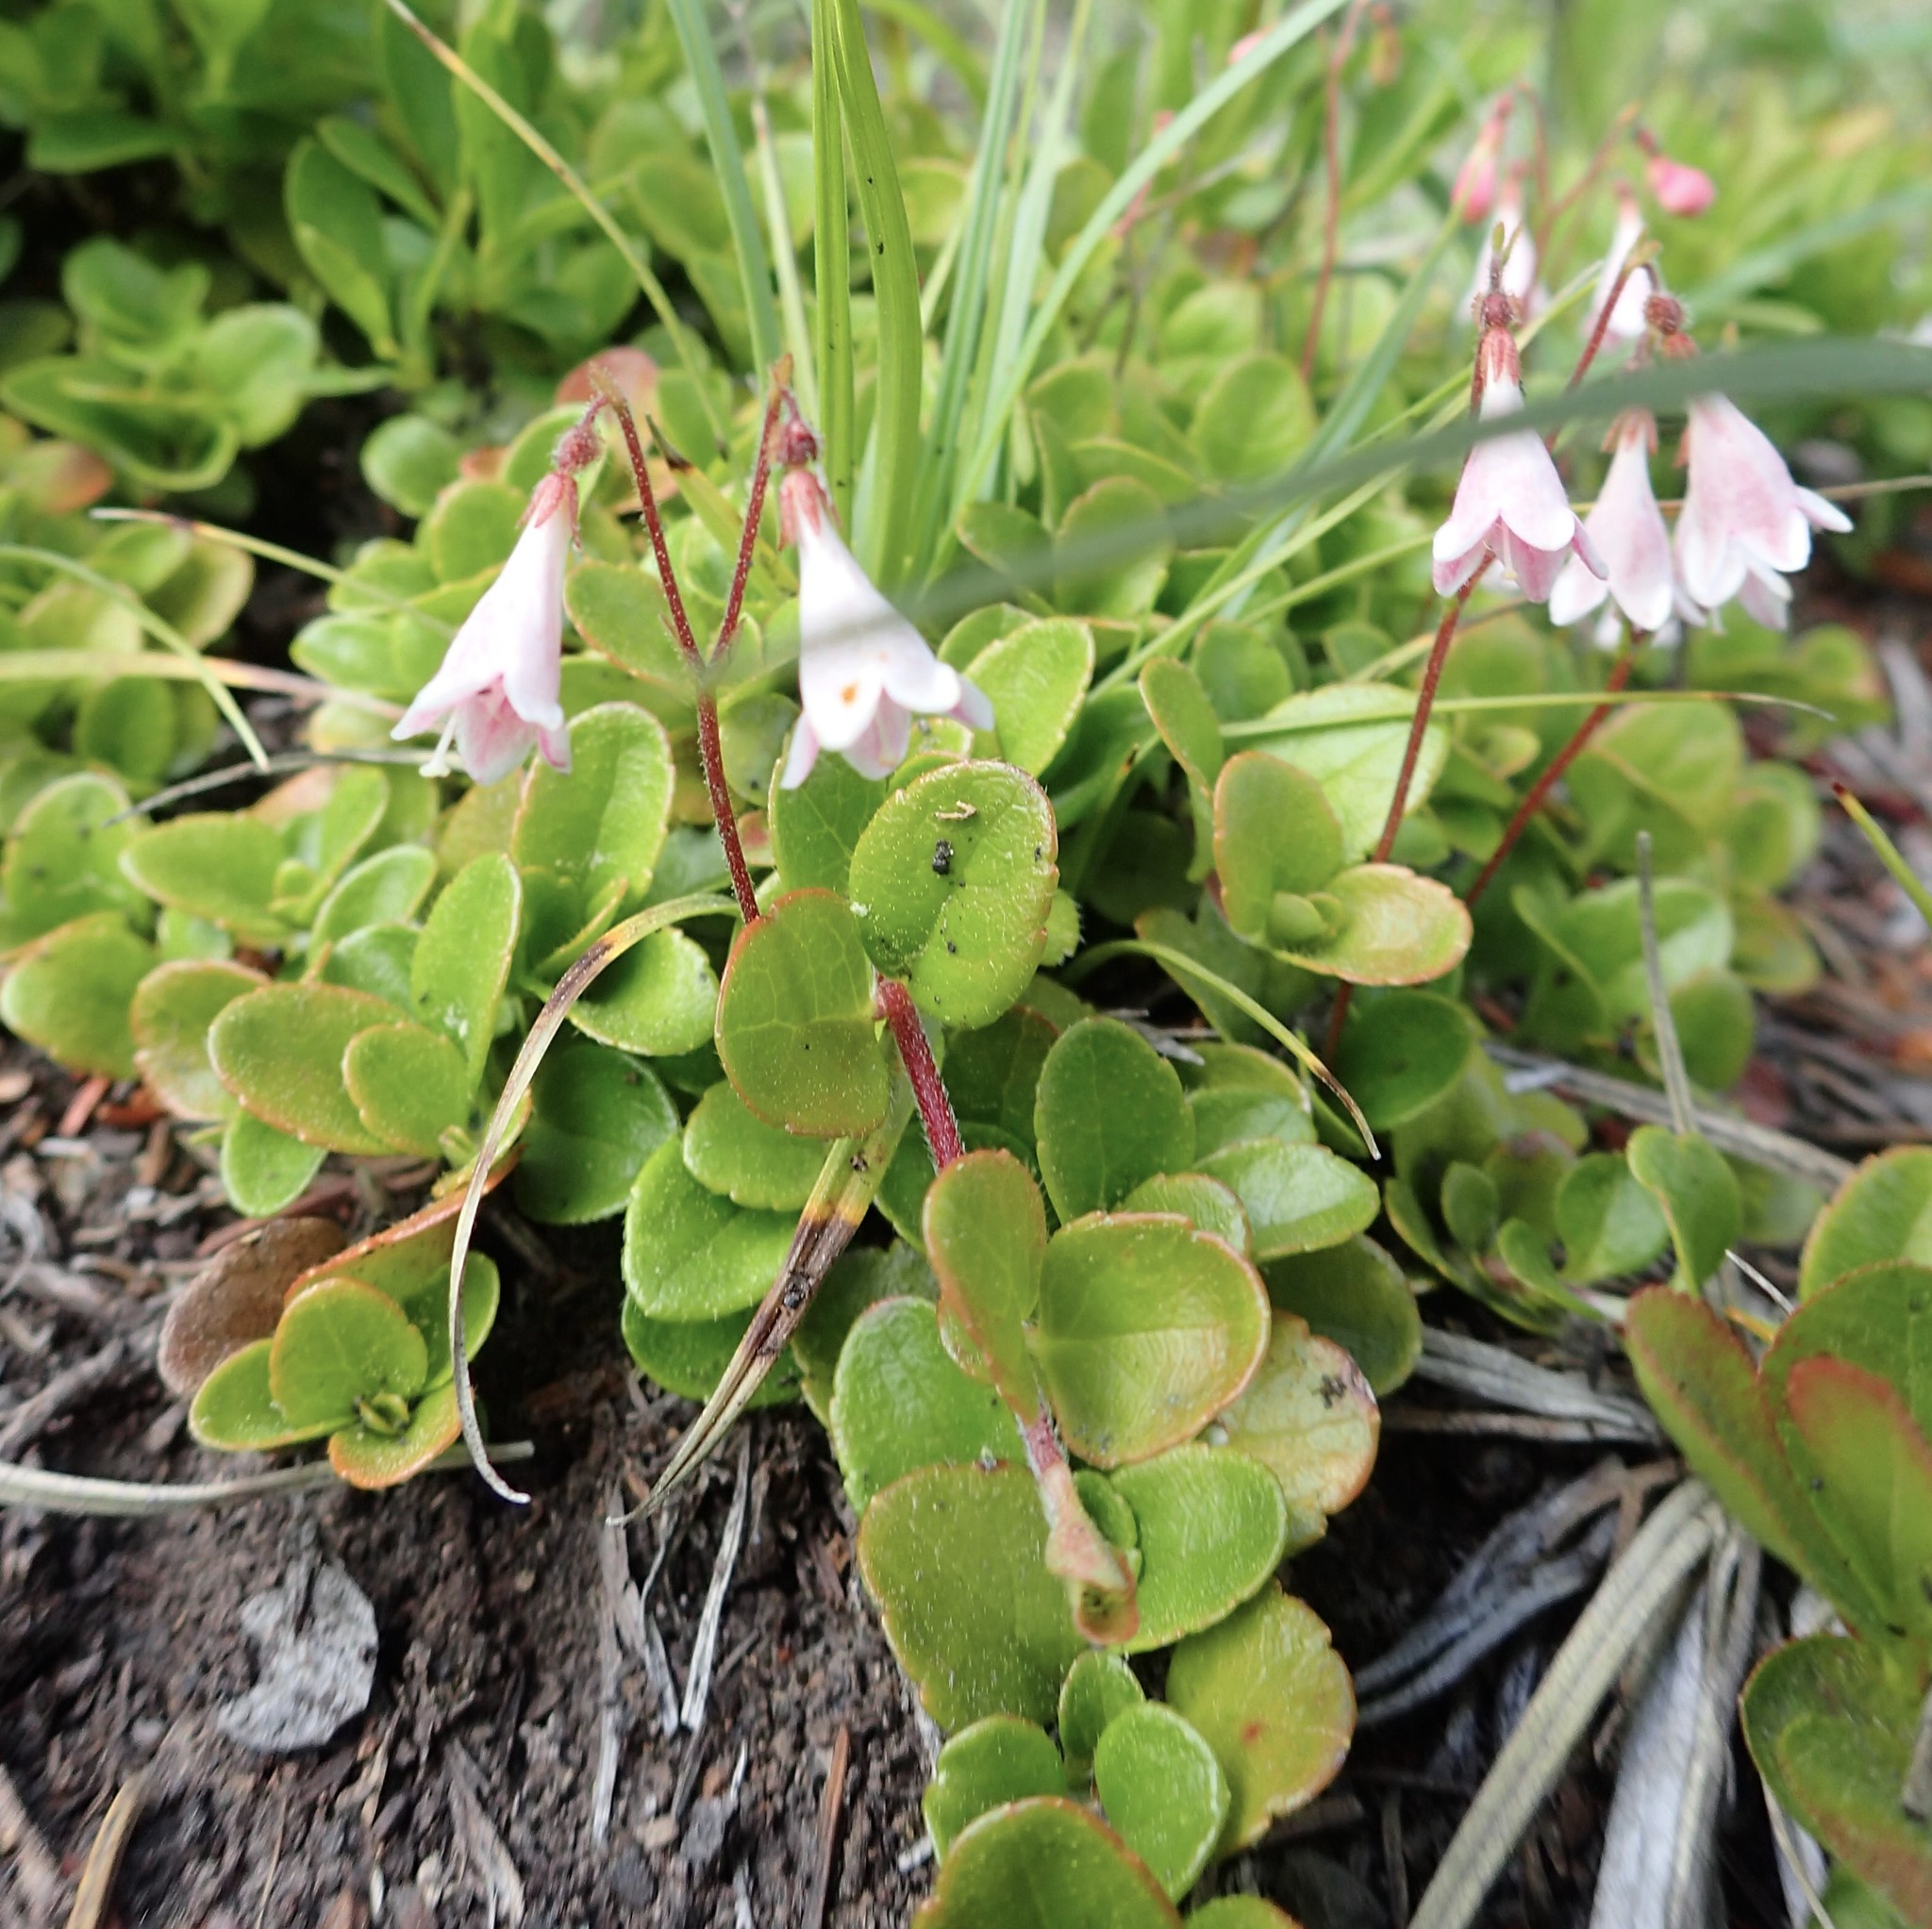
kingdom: Plantae
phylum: Tracheophyta
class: Magnoliopsida
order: Dipsacales
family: Caprifoliaceae
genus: Linnaea
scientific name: Linnaea borealis
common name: Twinflower
